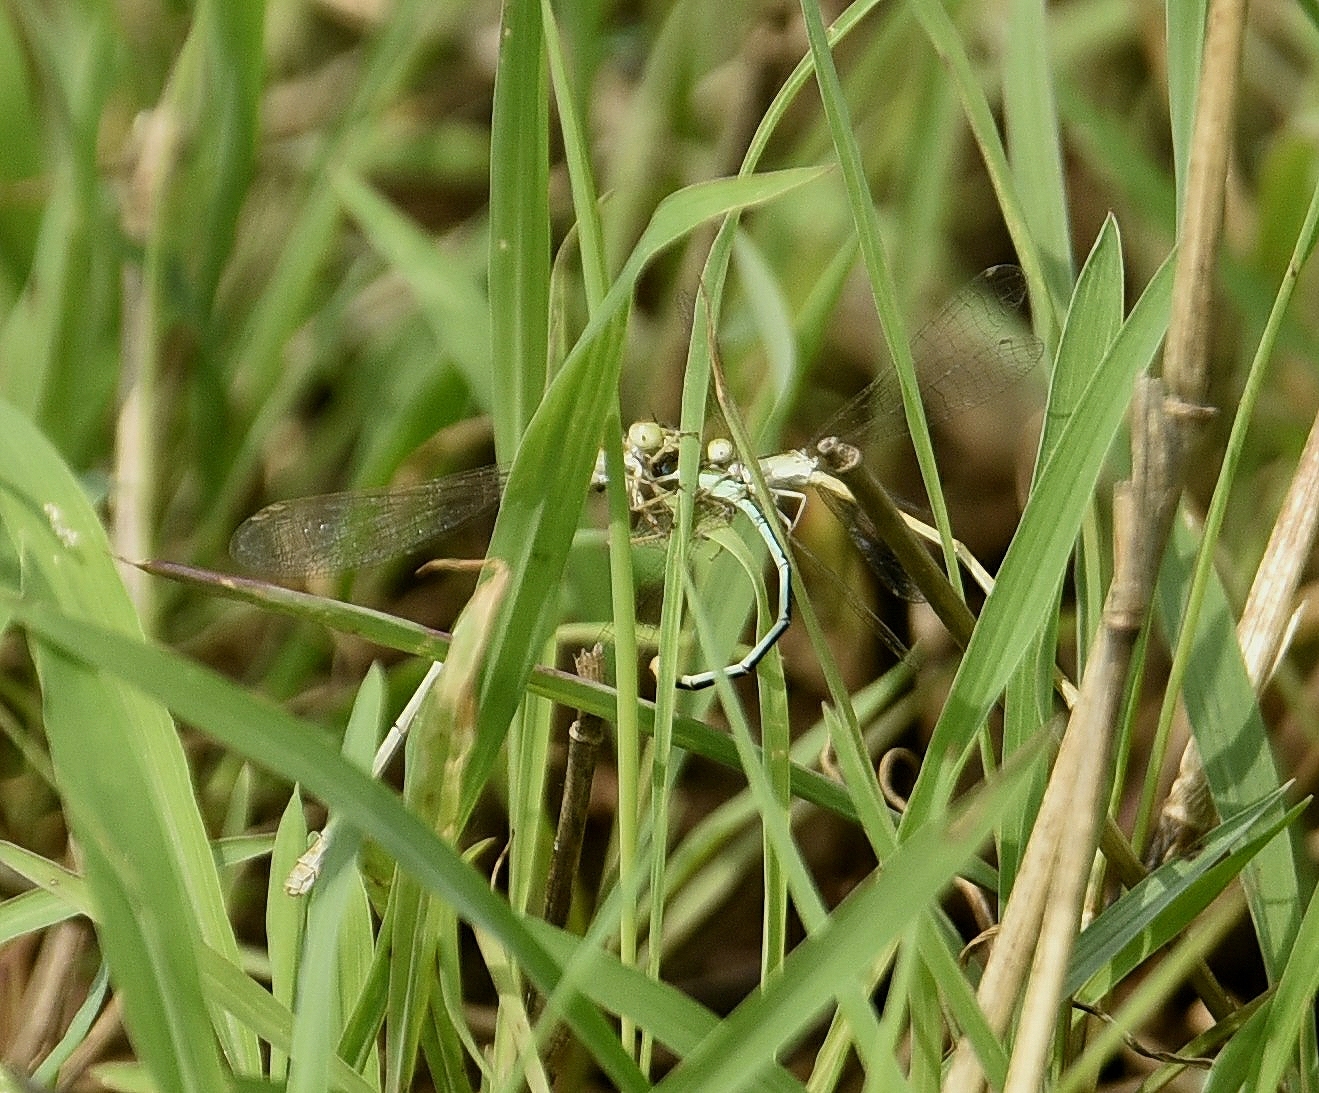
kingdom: Animalia
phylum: Arthropoda
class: Insecta
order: Odonata
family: Coenagrionidae
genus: Agriocnemis
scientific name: Agriocnemis pygmaea
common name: Pygmy wisp
